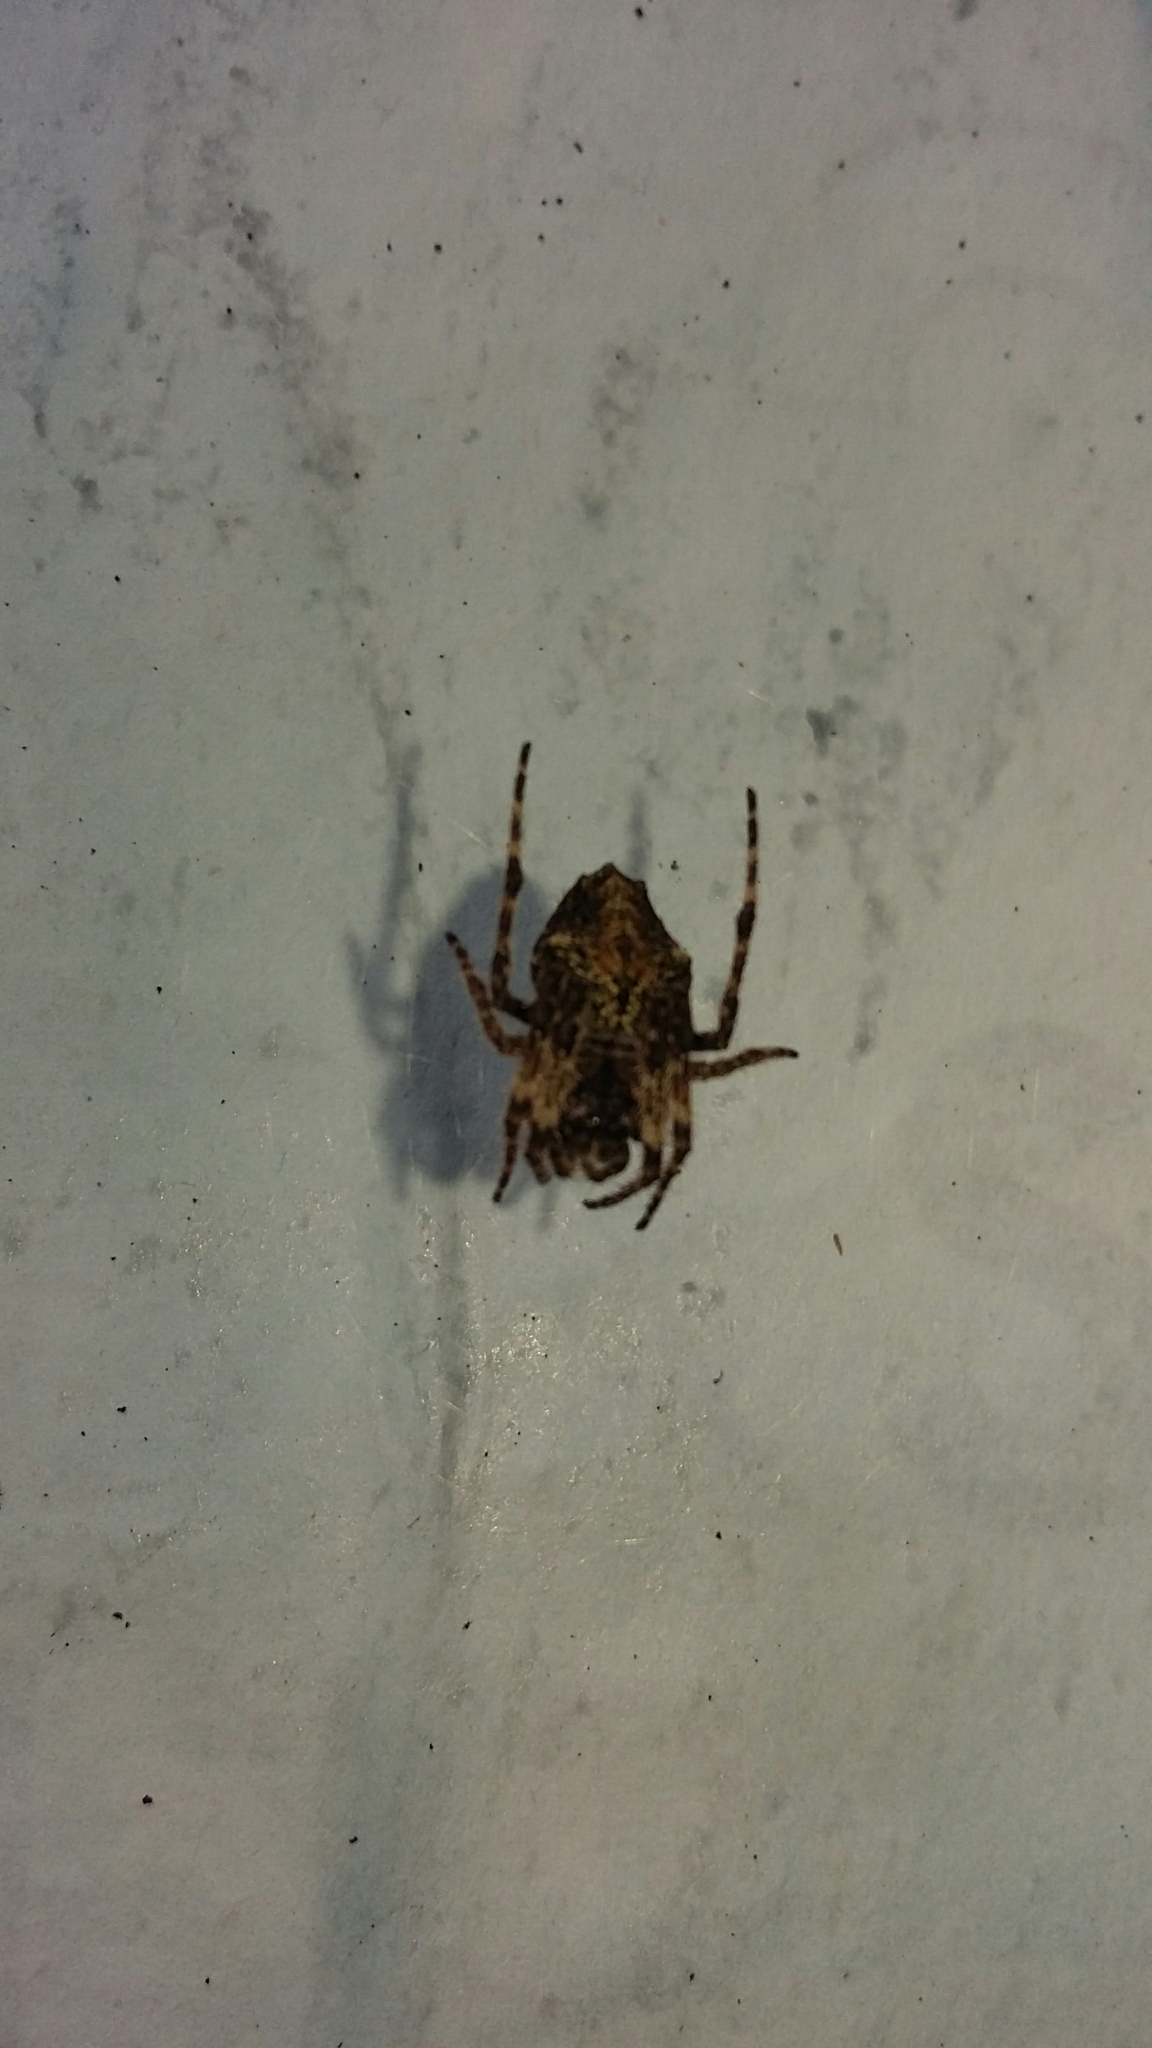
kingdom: Animalia
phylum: Arthropoda
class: Arachnida
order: Araneae
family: Araneidae
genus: Eriophora
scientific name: Eriophora pustulosa
